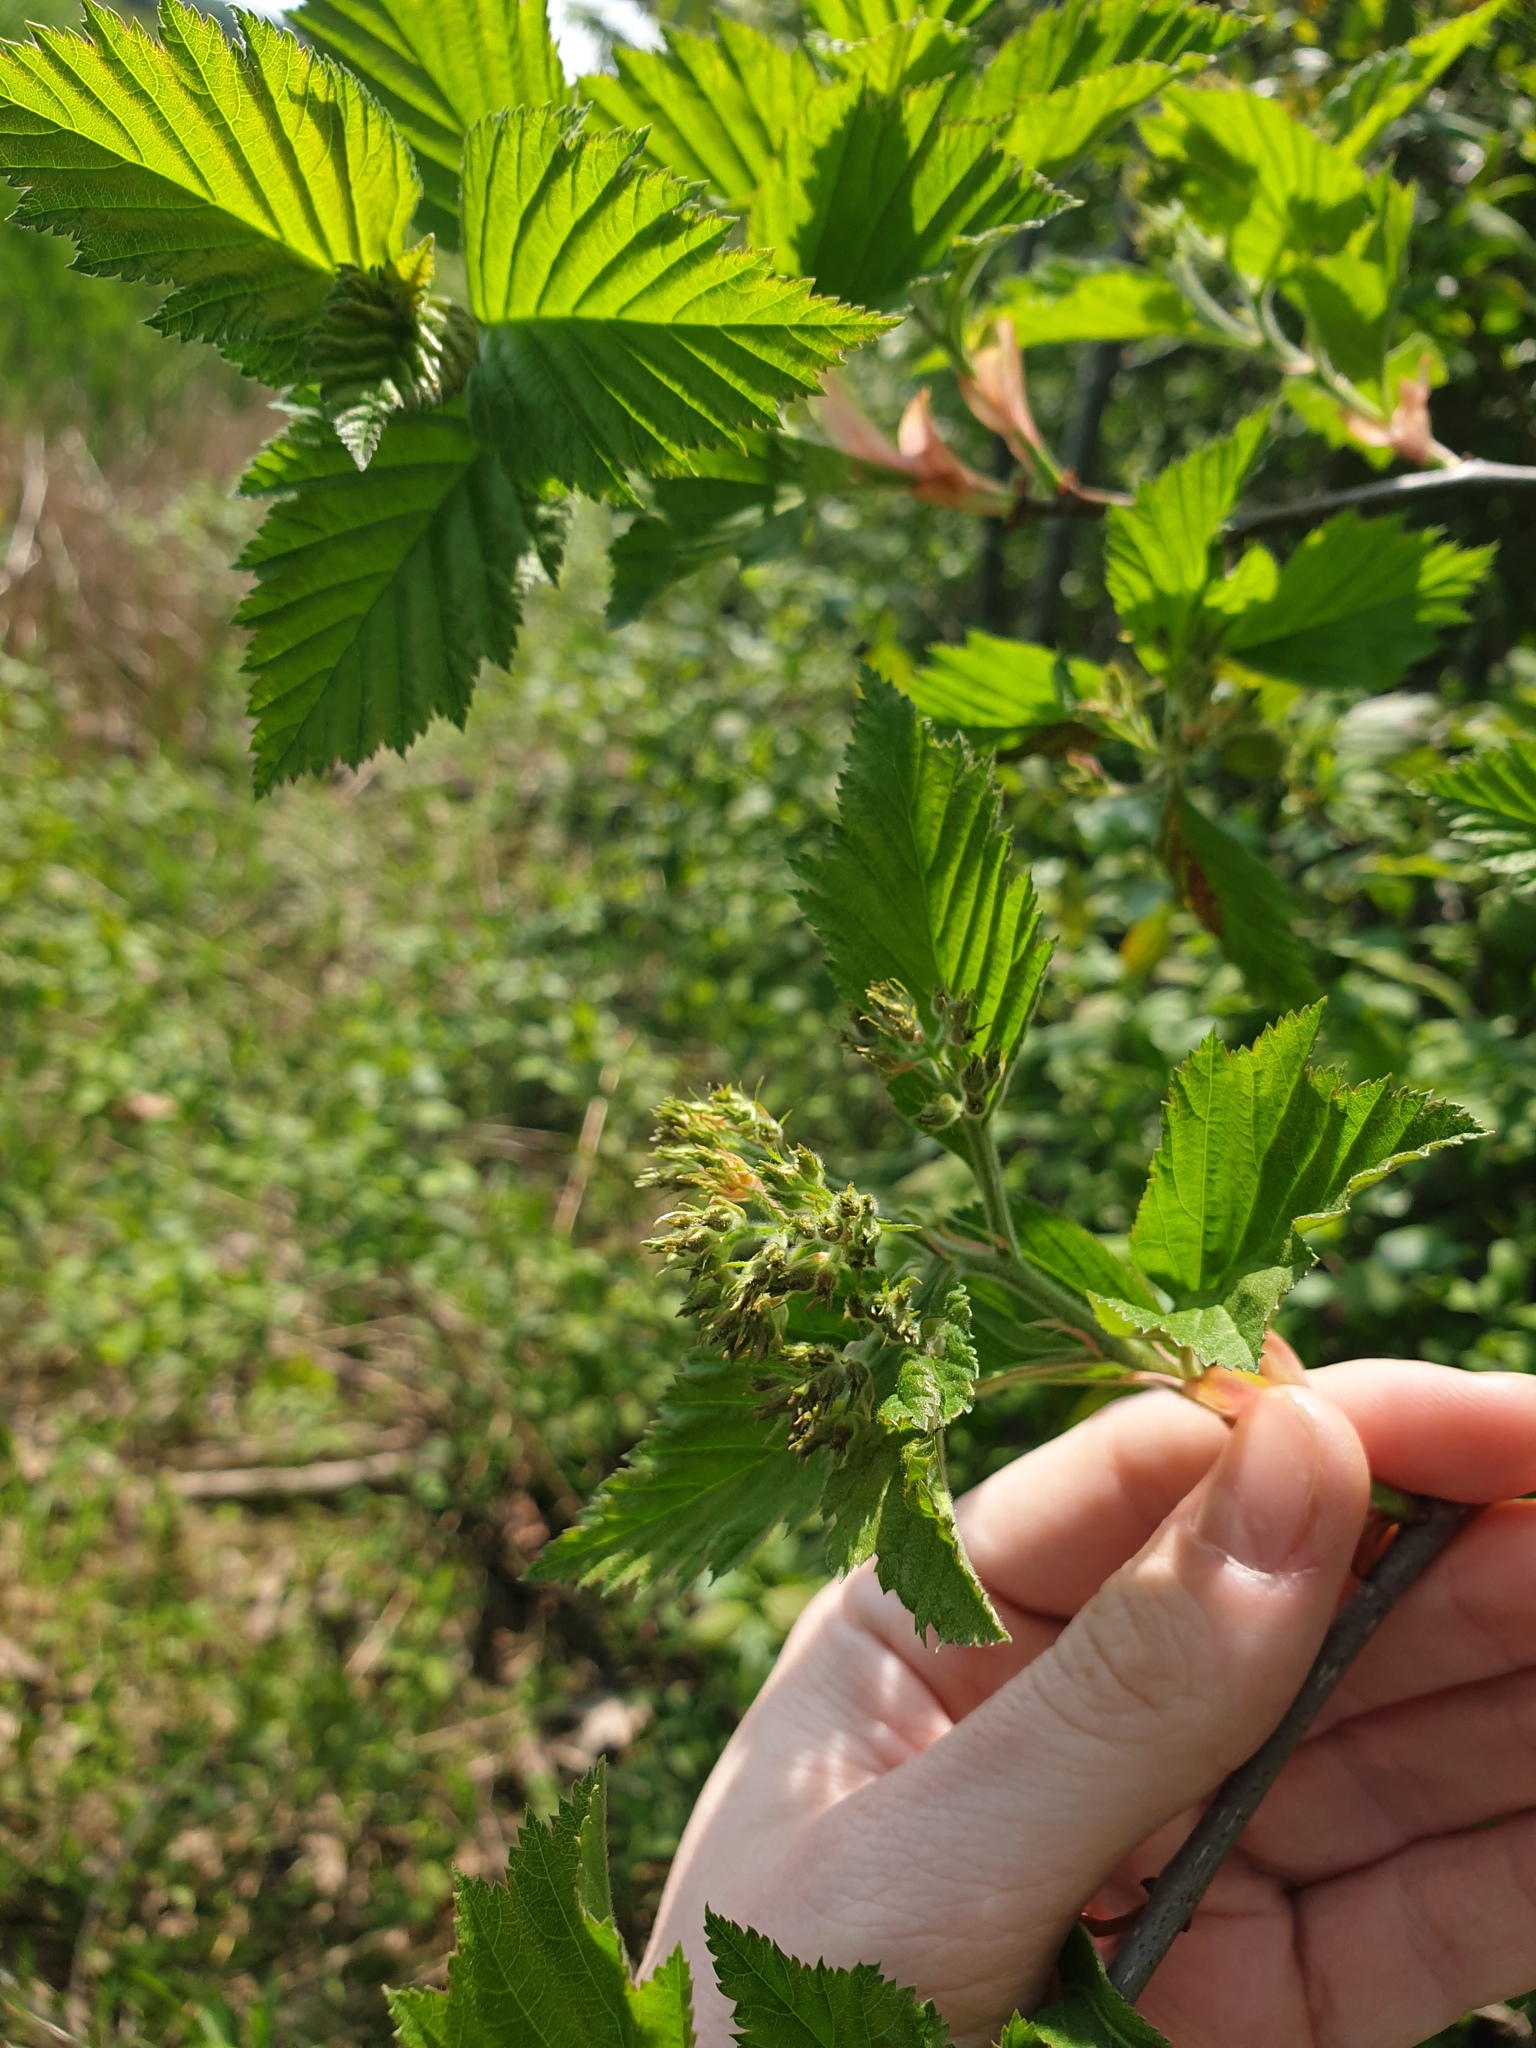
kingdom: Plantae
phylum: Tracheophyta
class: Magnoliopsida
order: Rosales
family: Rosaceae
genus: Crataegus
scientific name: Crataegus macracantha
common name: Large-thorn hawthorn
